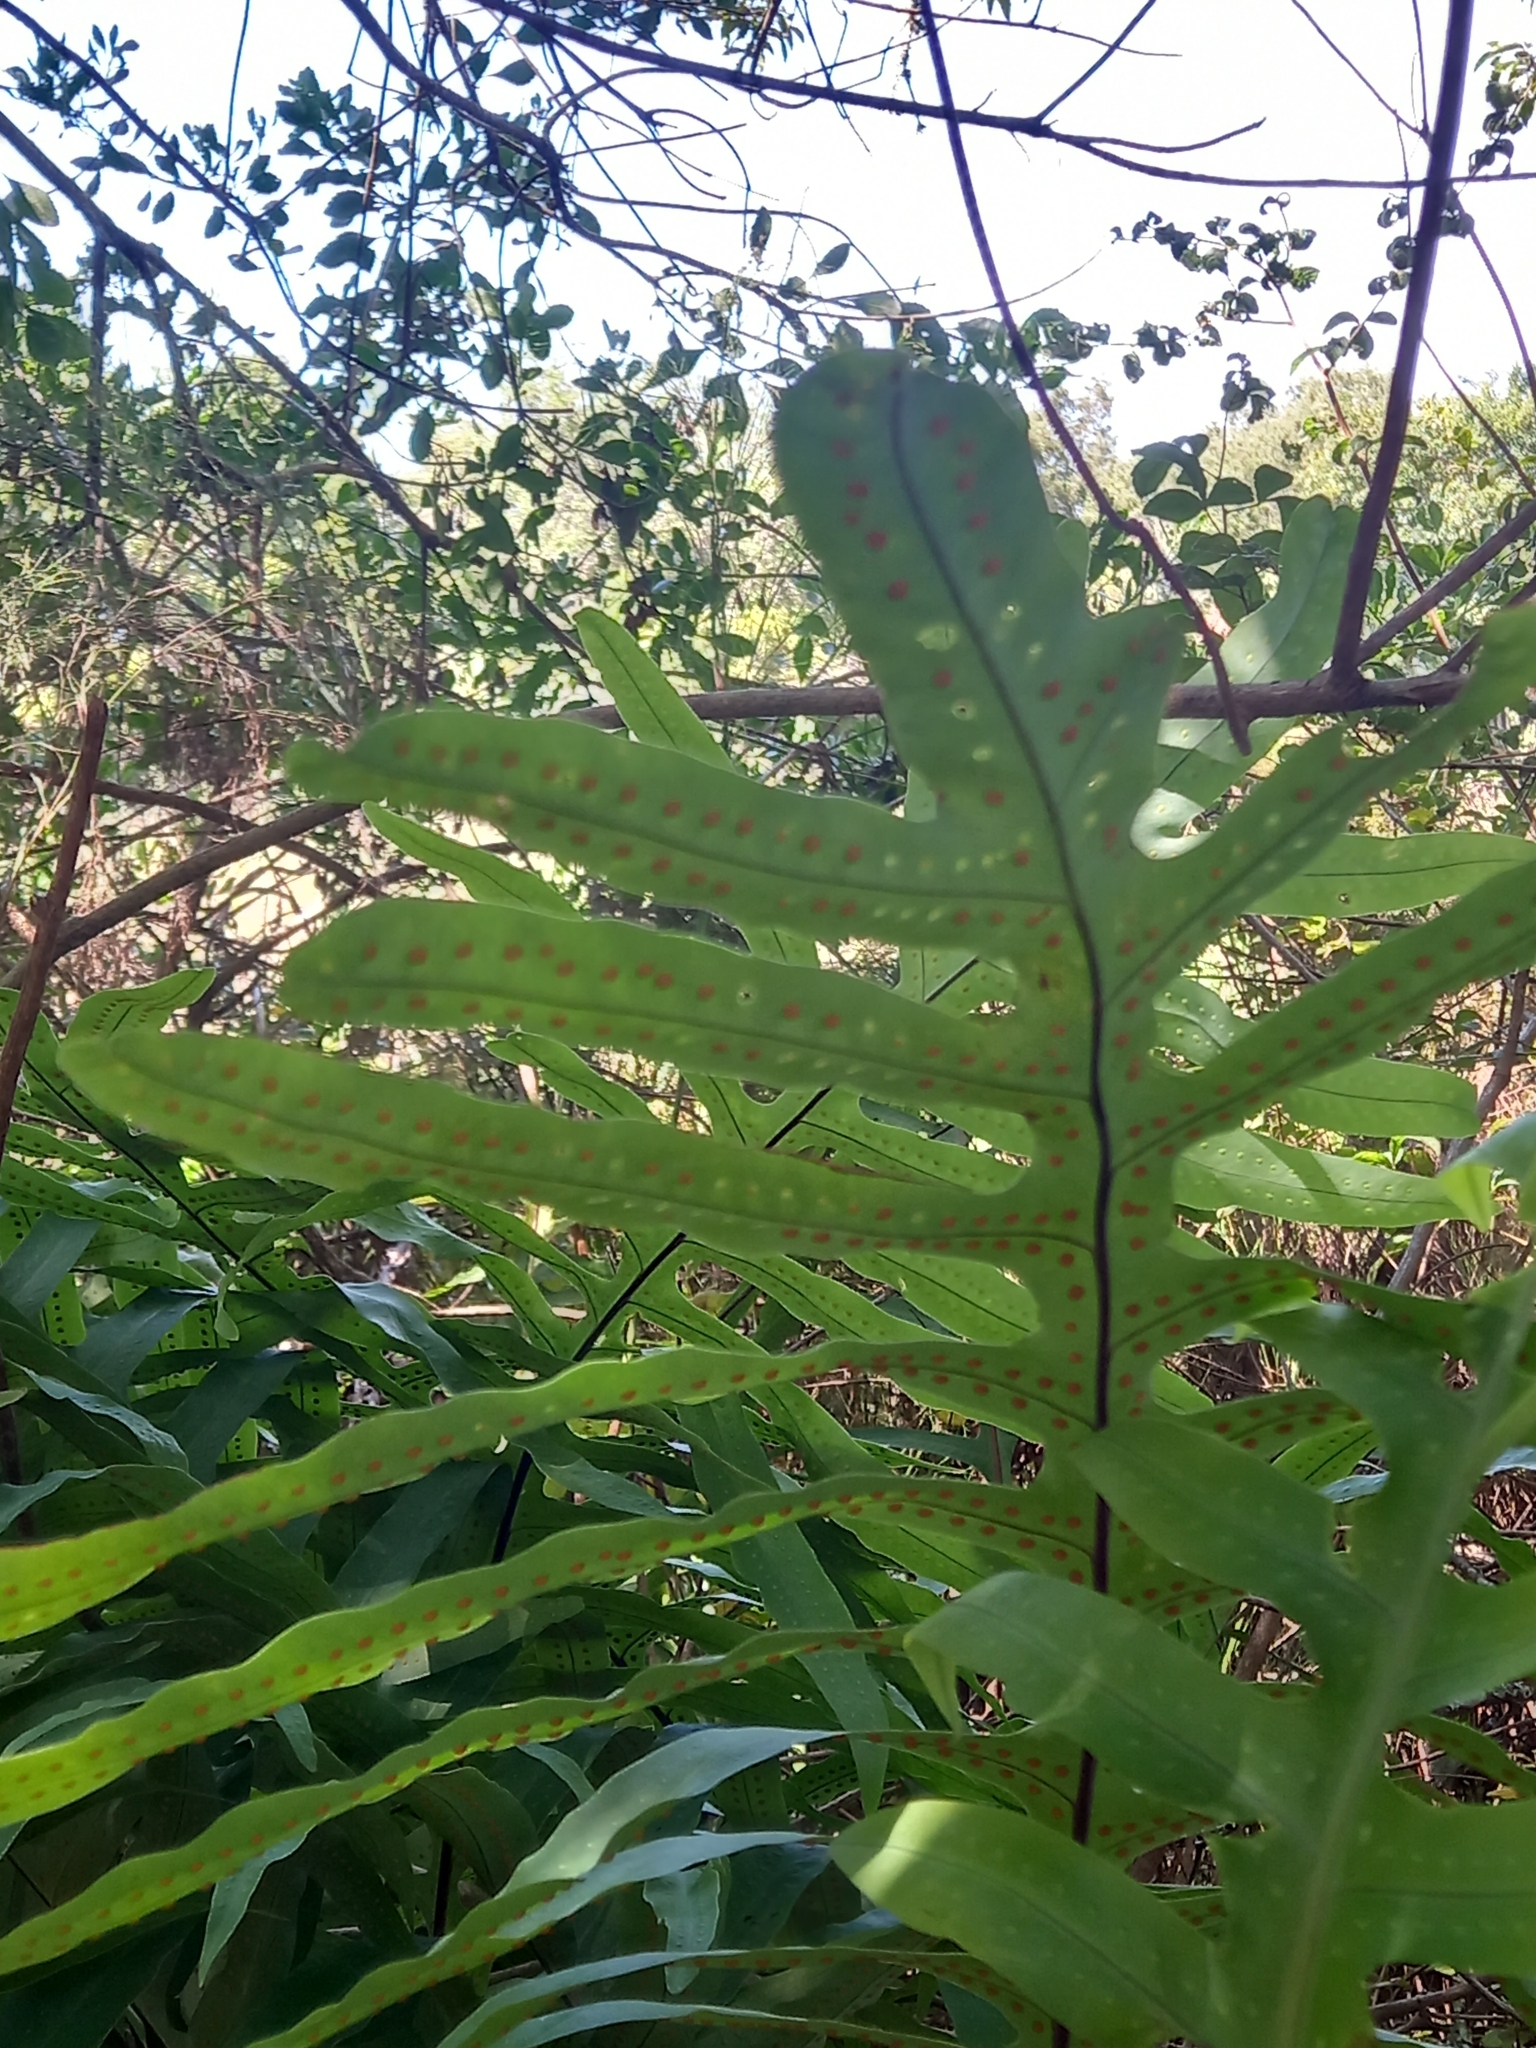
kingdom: Plantae
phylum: Tracheophyta
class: Polypodiopsida
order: Polypodiales
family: Polypodiaceae
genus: Phlebodium
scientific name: Phlebodium aureum
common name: Gold-foot fern
